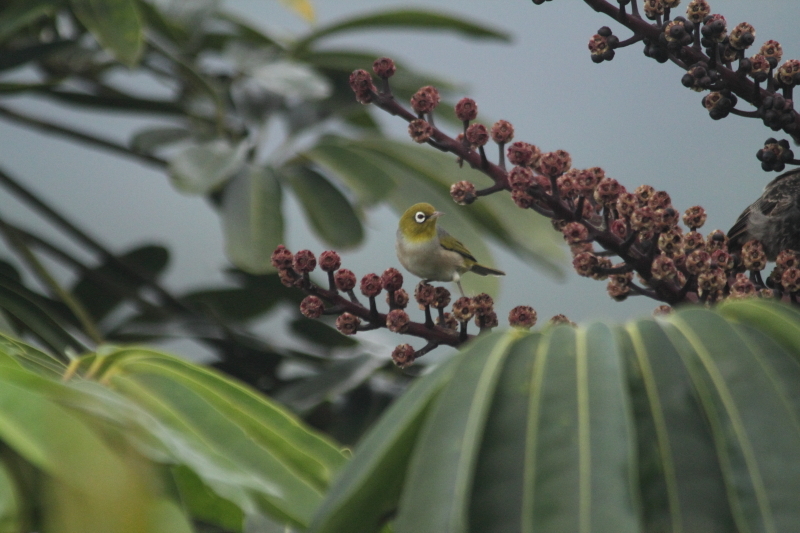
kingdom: Animalia
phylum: Chordata
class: Aves
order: Passeriformes
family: Zosteropidae
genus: Zosterops
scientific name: Zosterops lateralis
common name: Silvereye
